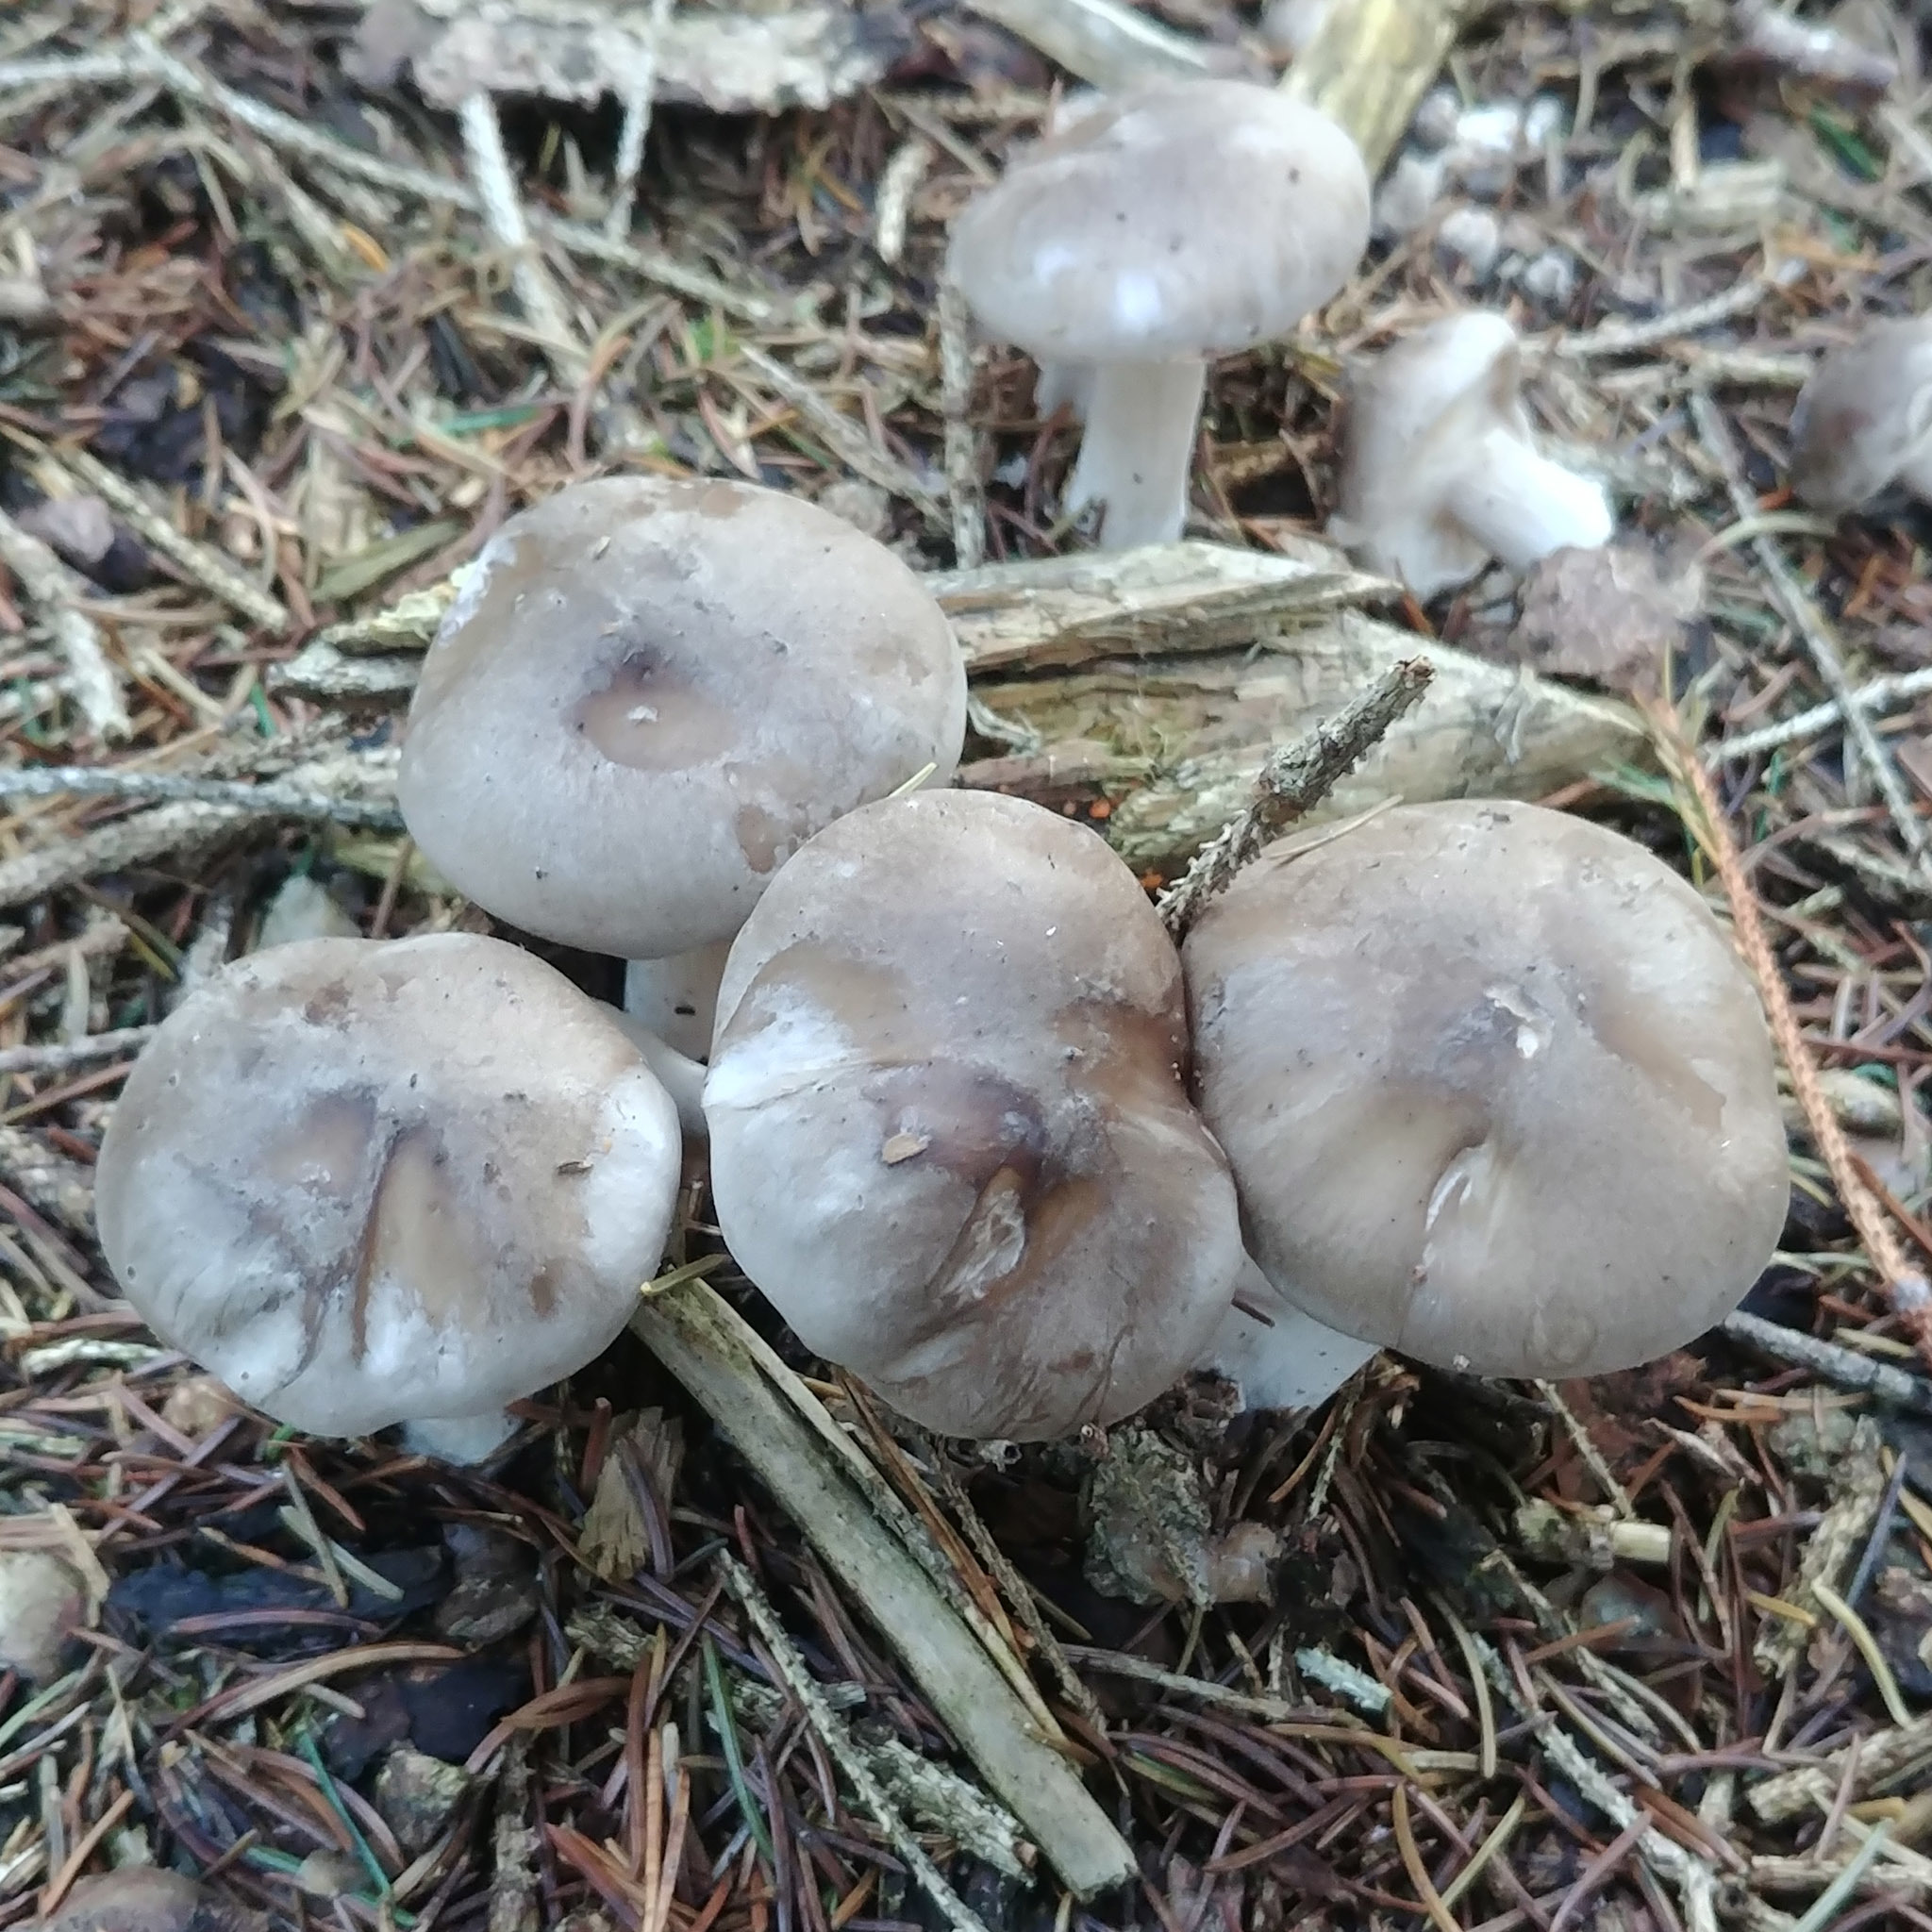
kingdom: Fungi
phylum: Basidiomycota
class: Agaricomycetes
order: Agaricales
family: Tricholomataceae
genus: Clitocybe
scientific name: Clitocybe nebularis
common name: Clouded agaric
